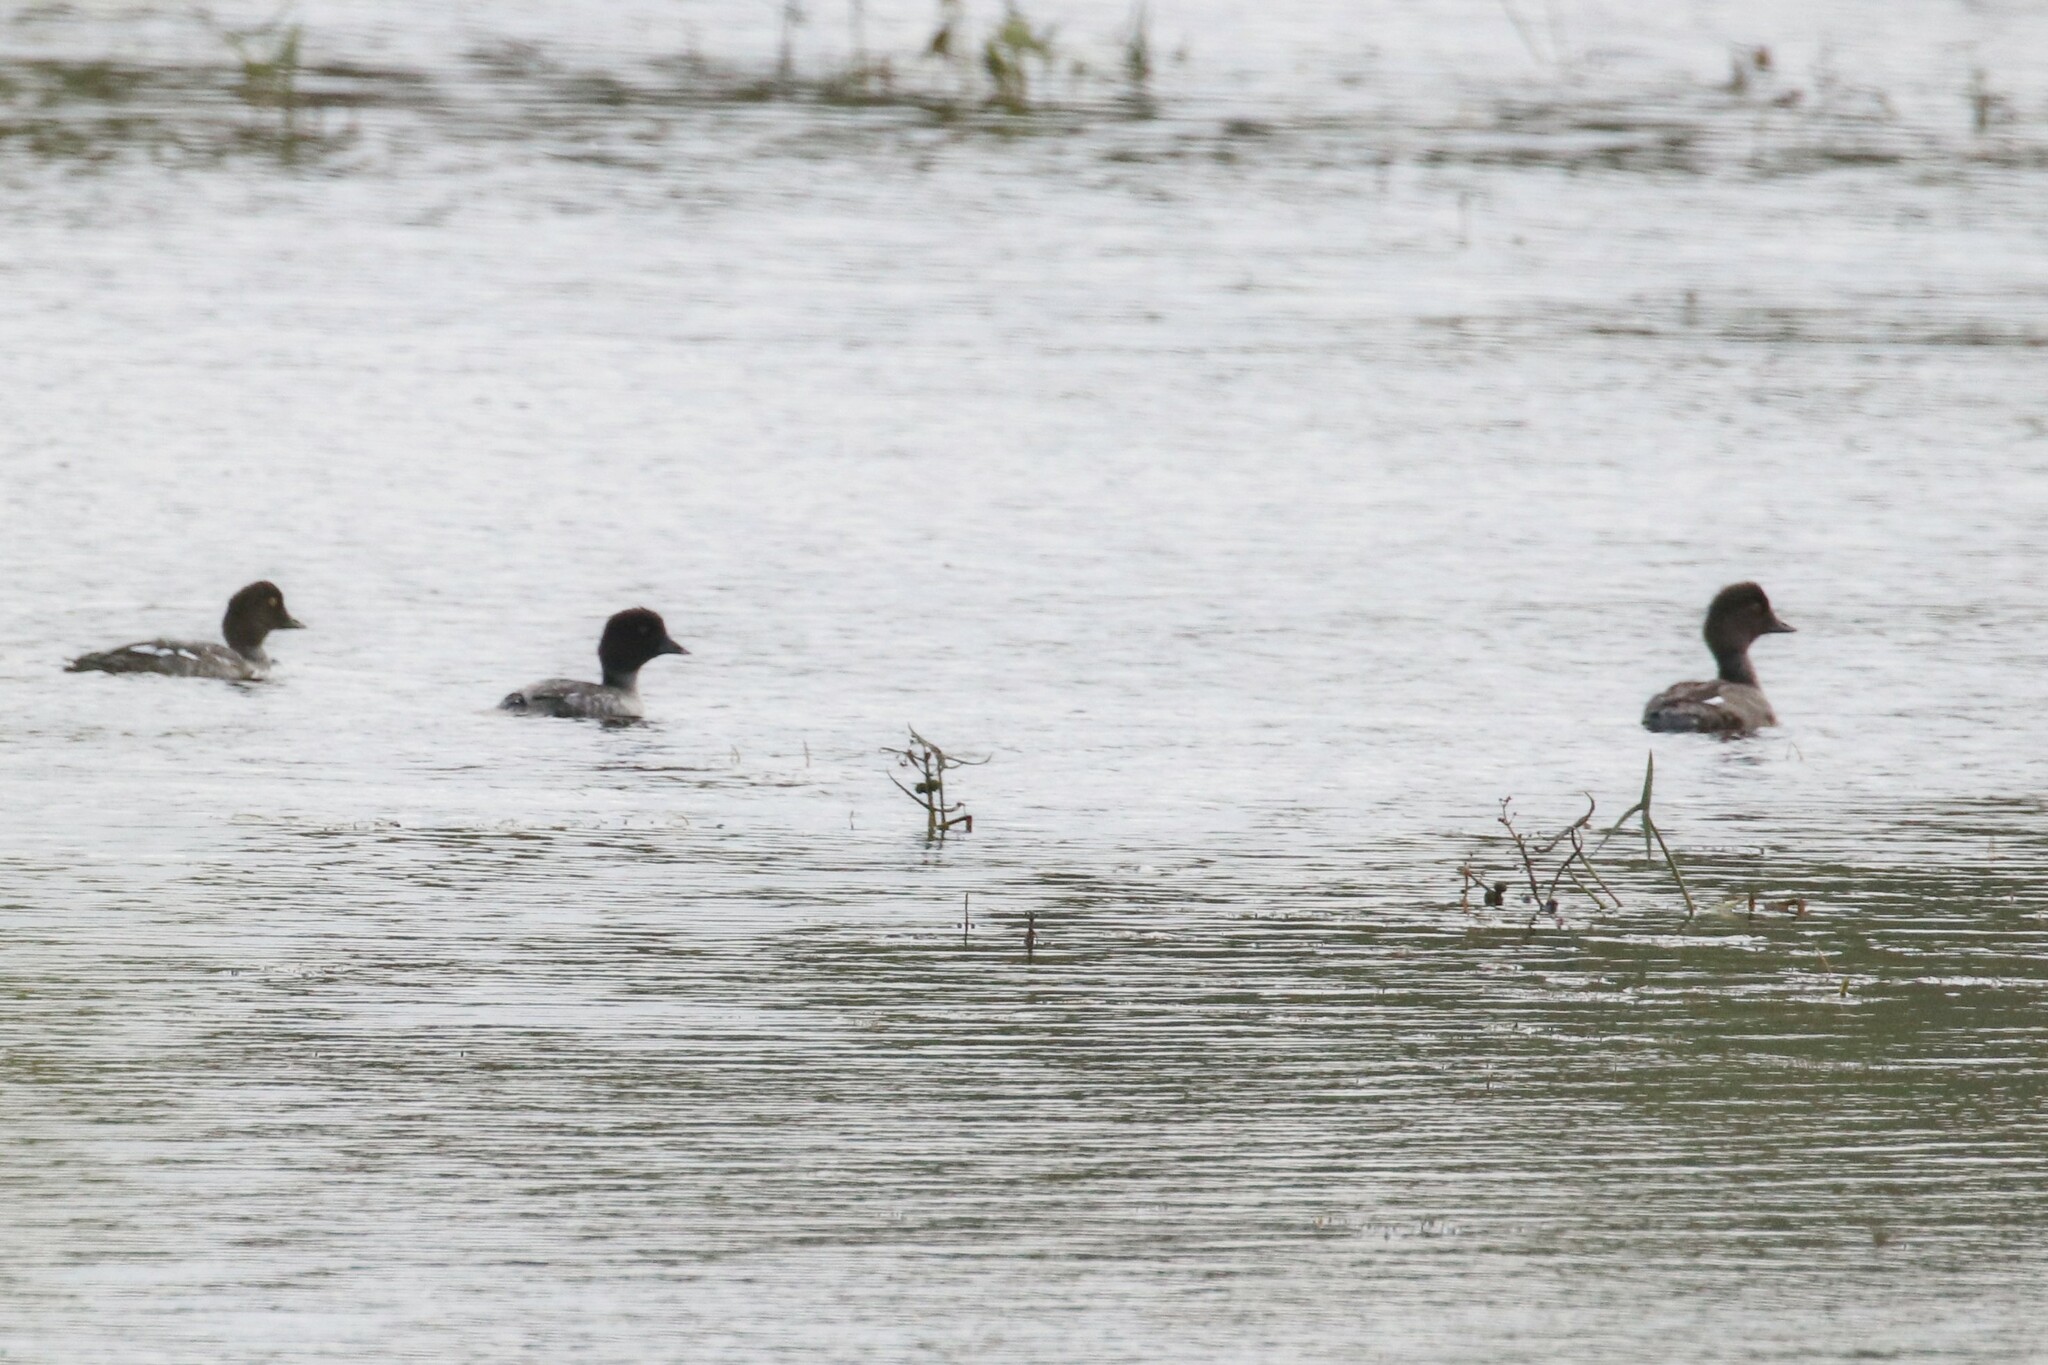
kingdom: Animalia
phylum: Chordata
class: Aves
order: Anseriformes
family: Anatidae
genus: Bucephala
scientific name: Bucephala clangula
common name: Common goldeneye
